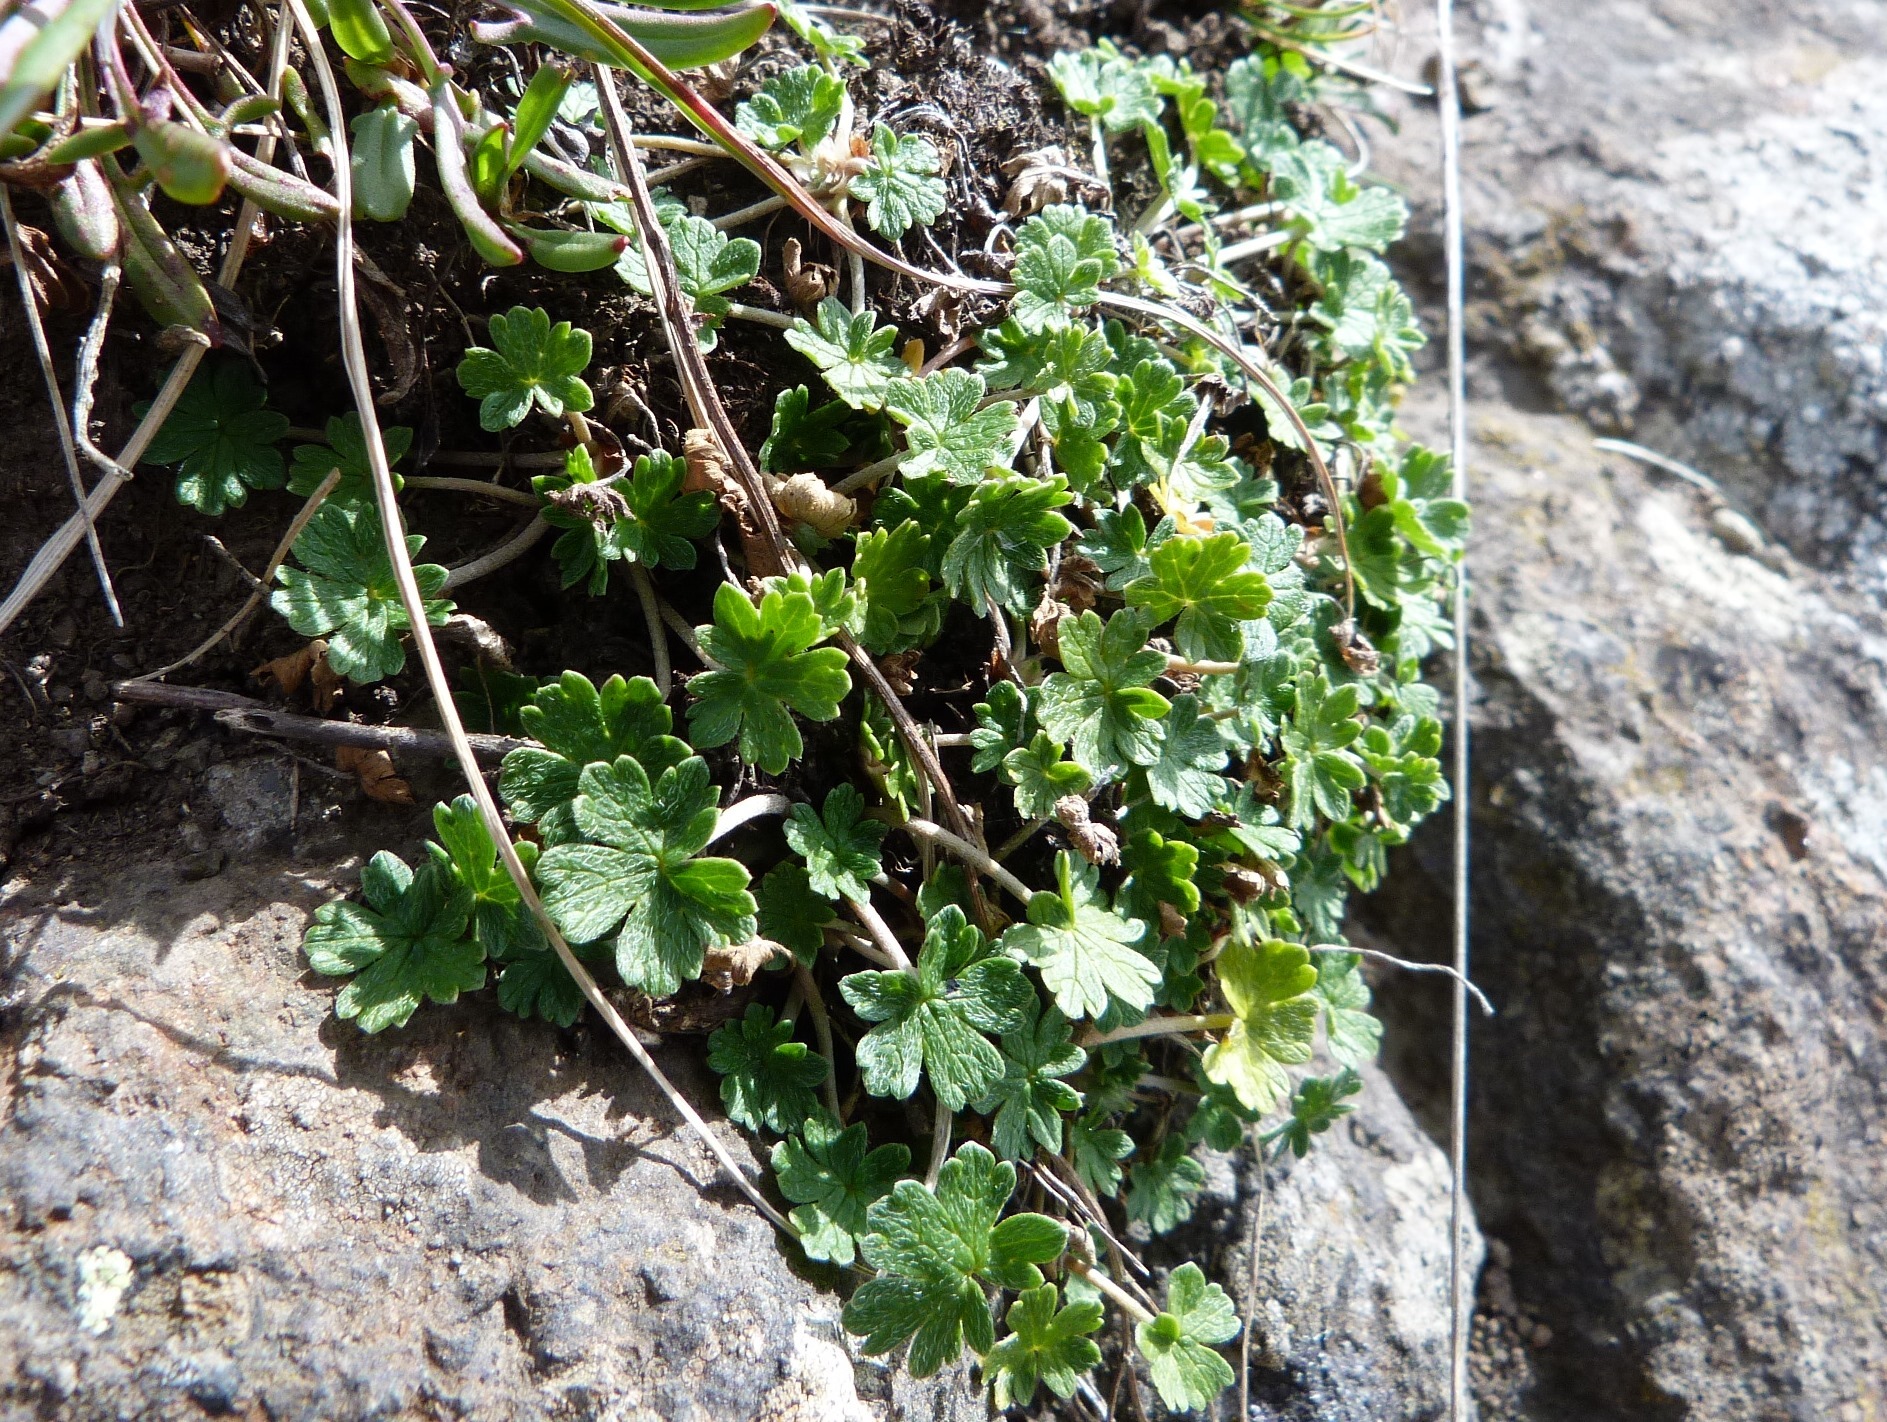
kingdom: Plantae
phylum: Tracheophyta
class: Magnoliopsida
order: Geraniales
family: Geraniaceae
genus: Geranium
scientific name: Geranium brevicaule
